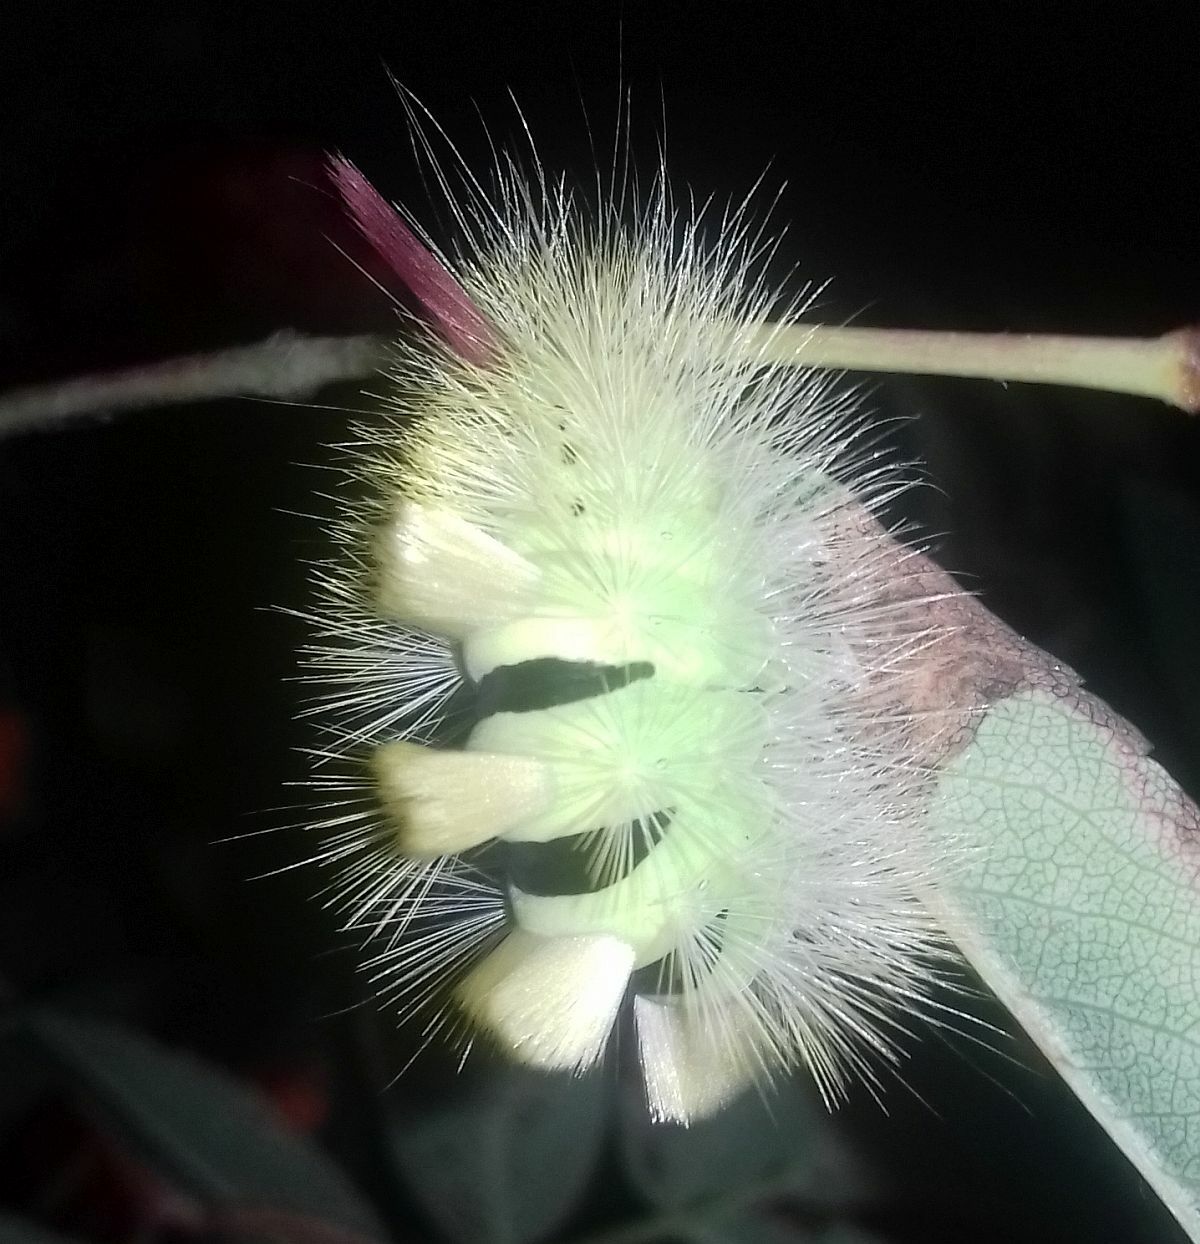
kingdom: Animalia
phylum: Arthropoda
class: Insecta
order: Lepidoptera
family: Erebidae
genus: Calliteara
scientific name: Calliteara pudibunda
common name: Pale tussock
